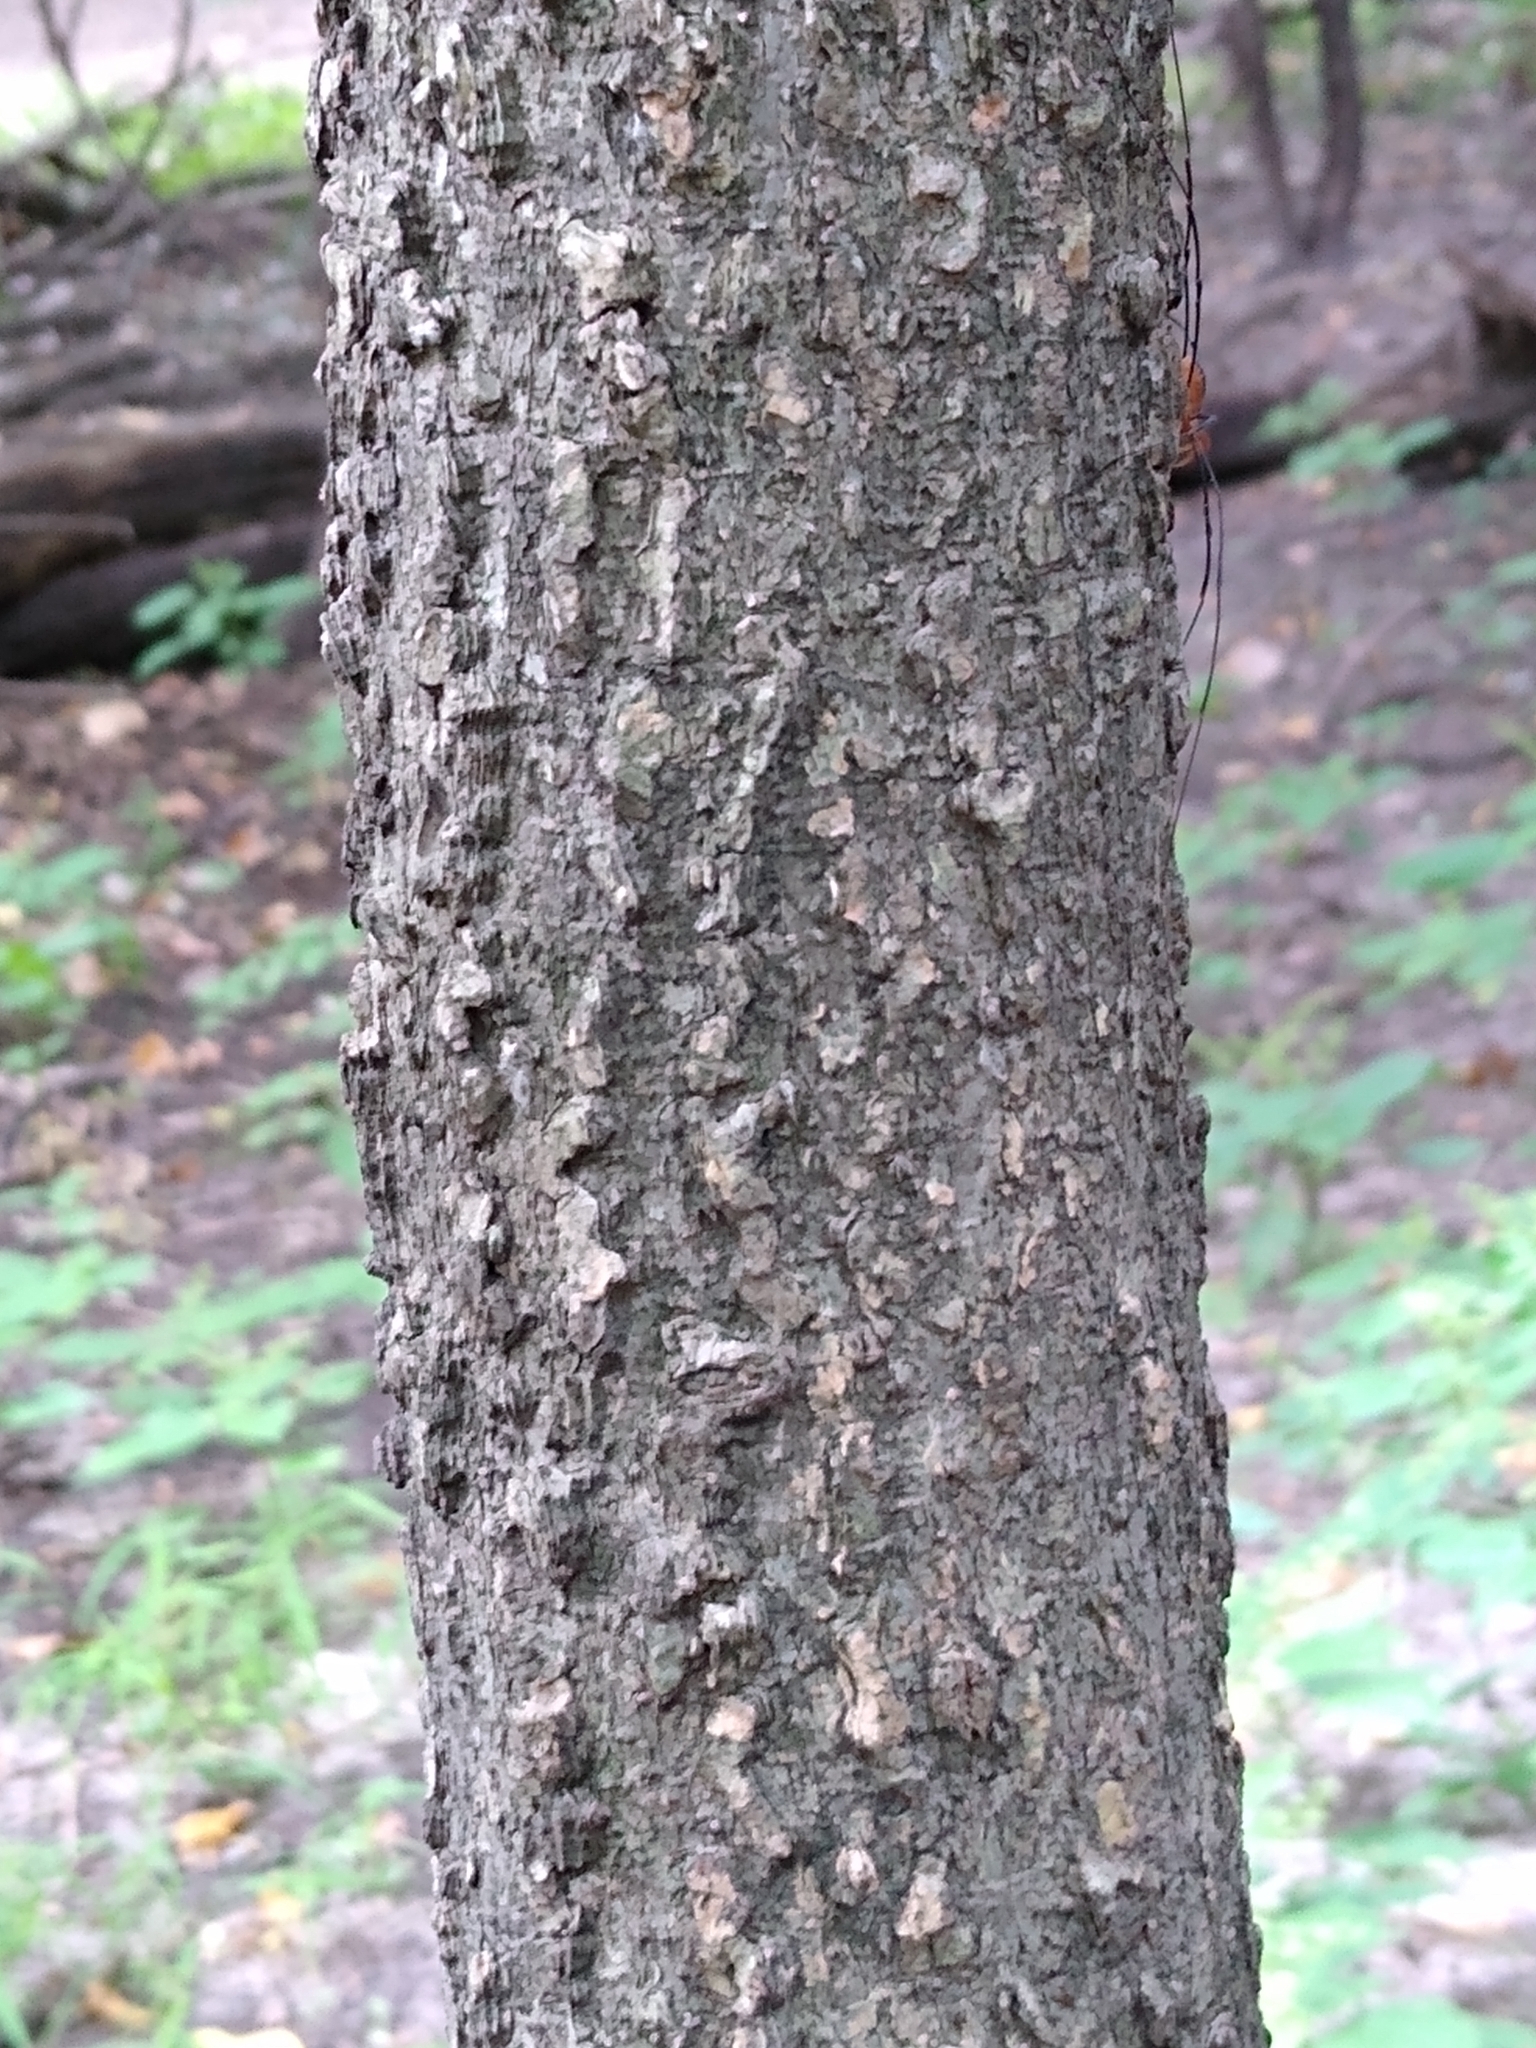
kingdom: Plantae
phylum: Tracheophyta
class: Magnoliopsida
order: Rosales
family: Cannabaceae
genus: Celtis
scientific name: Celtis occidentalis
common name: Common hackberry
